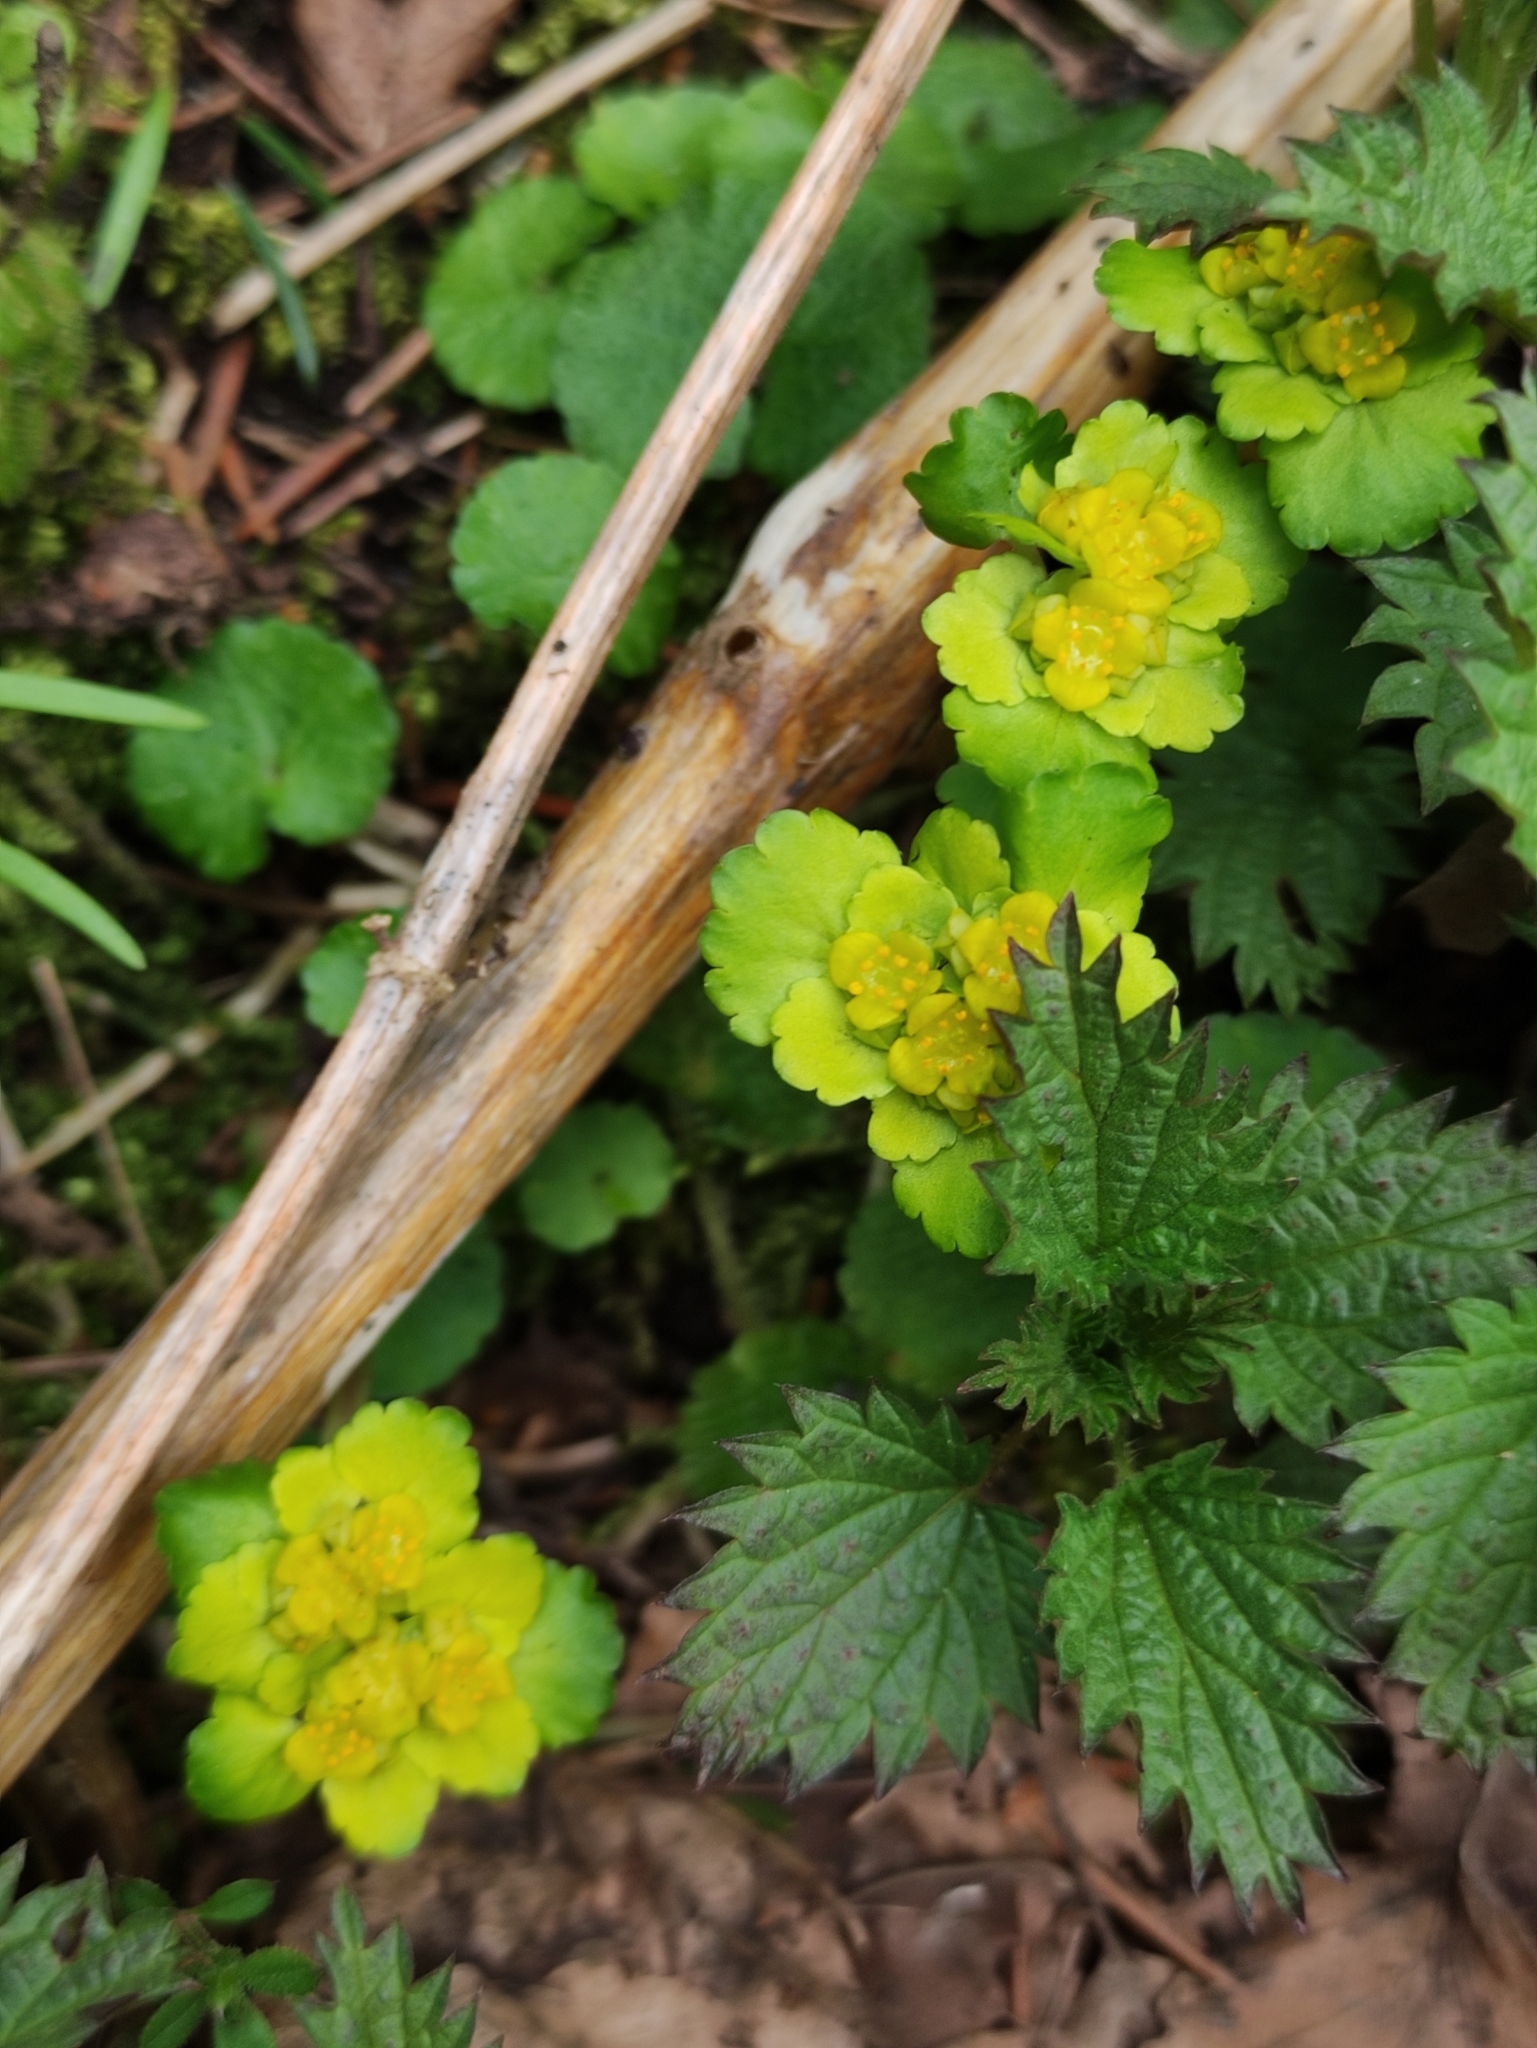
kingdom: Plantae
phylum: Tracheophyta
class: Magnoliopsida
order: Saxifragales
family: Saxifragaceae
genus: Chrysosplenium
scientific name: Chrysosplenium alternifolium
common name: Alternate-leaved golden-saxifrage
